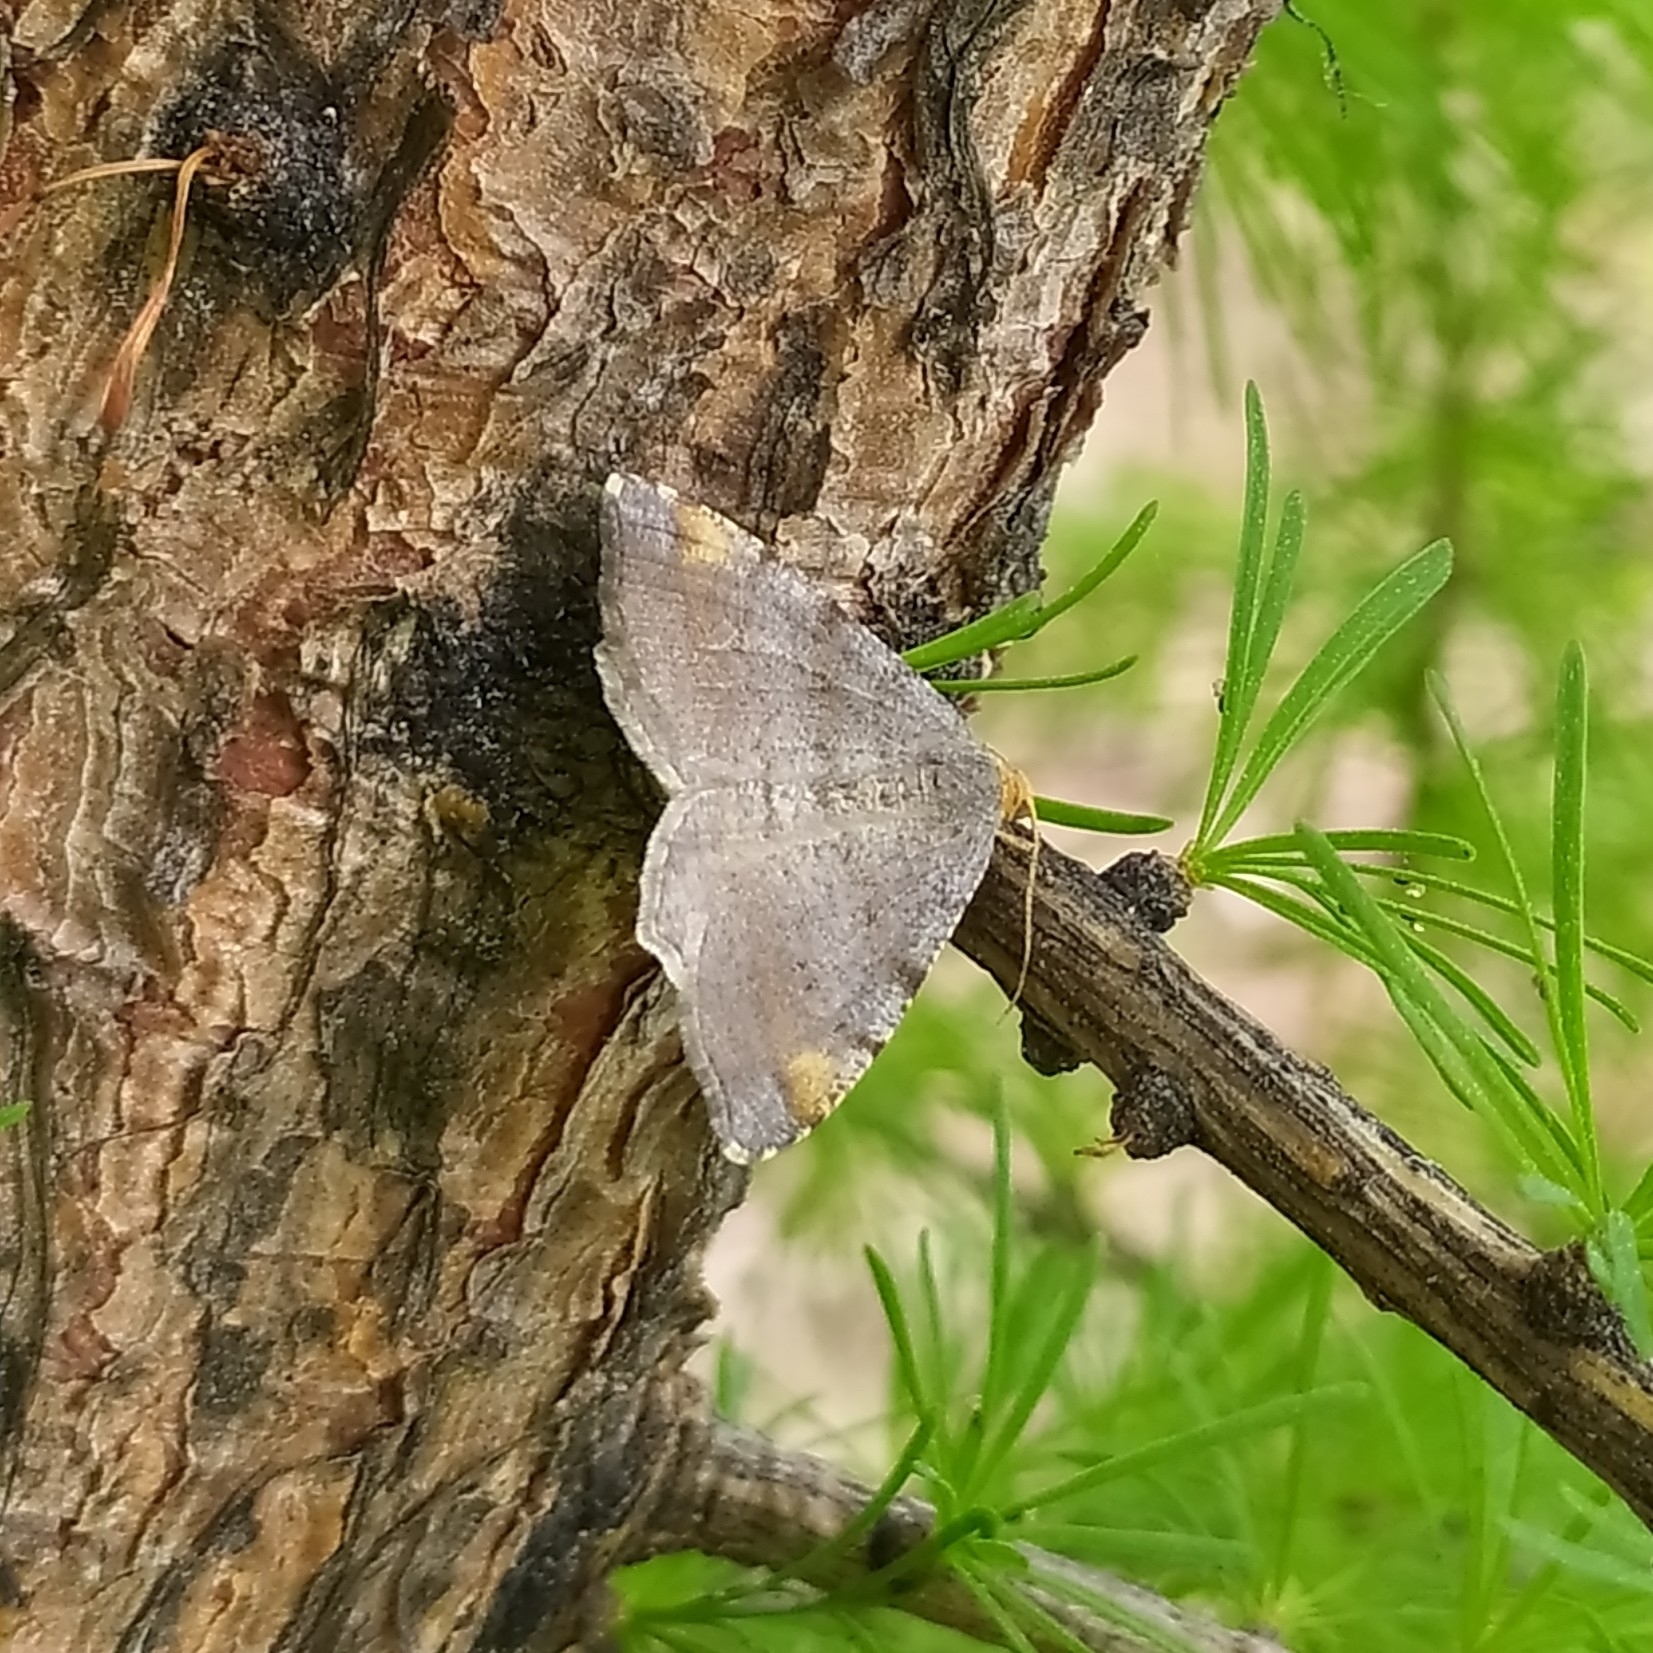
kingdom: Animalia
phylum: Arthropoda
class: Insecta
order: Lepidoptera
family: Geometridae
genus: Macaria
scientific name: Macaria liturata
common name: Tawny-barred angle
